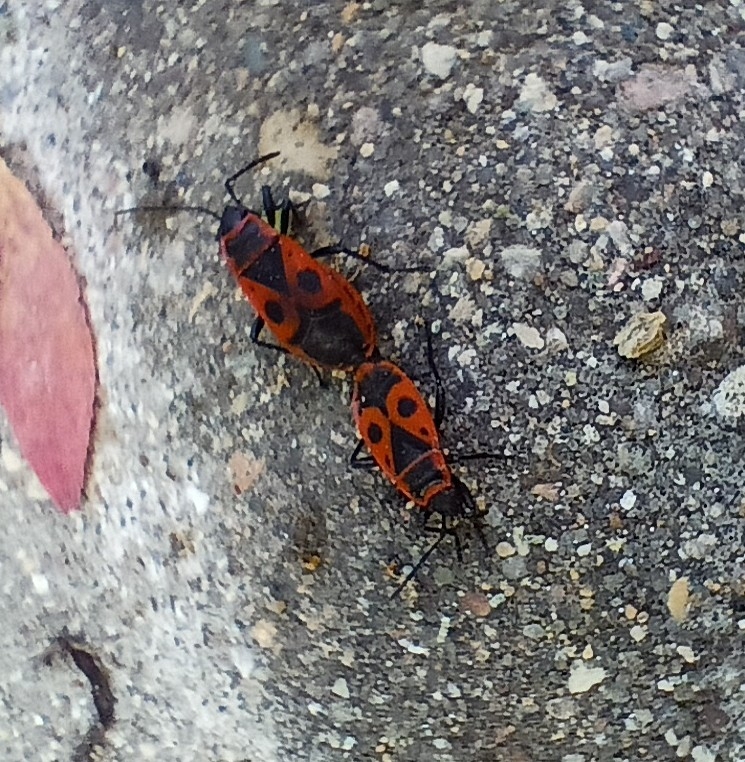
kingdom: Animalia
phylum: Arthropoda
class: Insecta
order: Hemiptera
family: Pyrrhocoridae
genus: Pyrrhocoris
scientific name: Pyrrhocoris apterus
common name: Firebug
